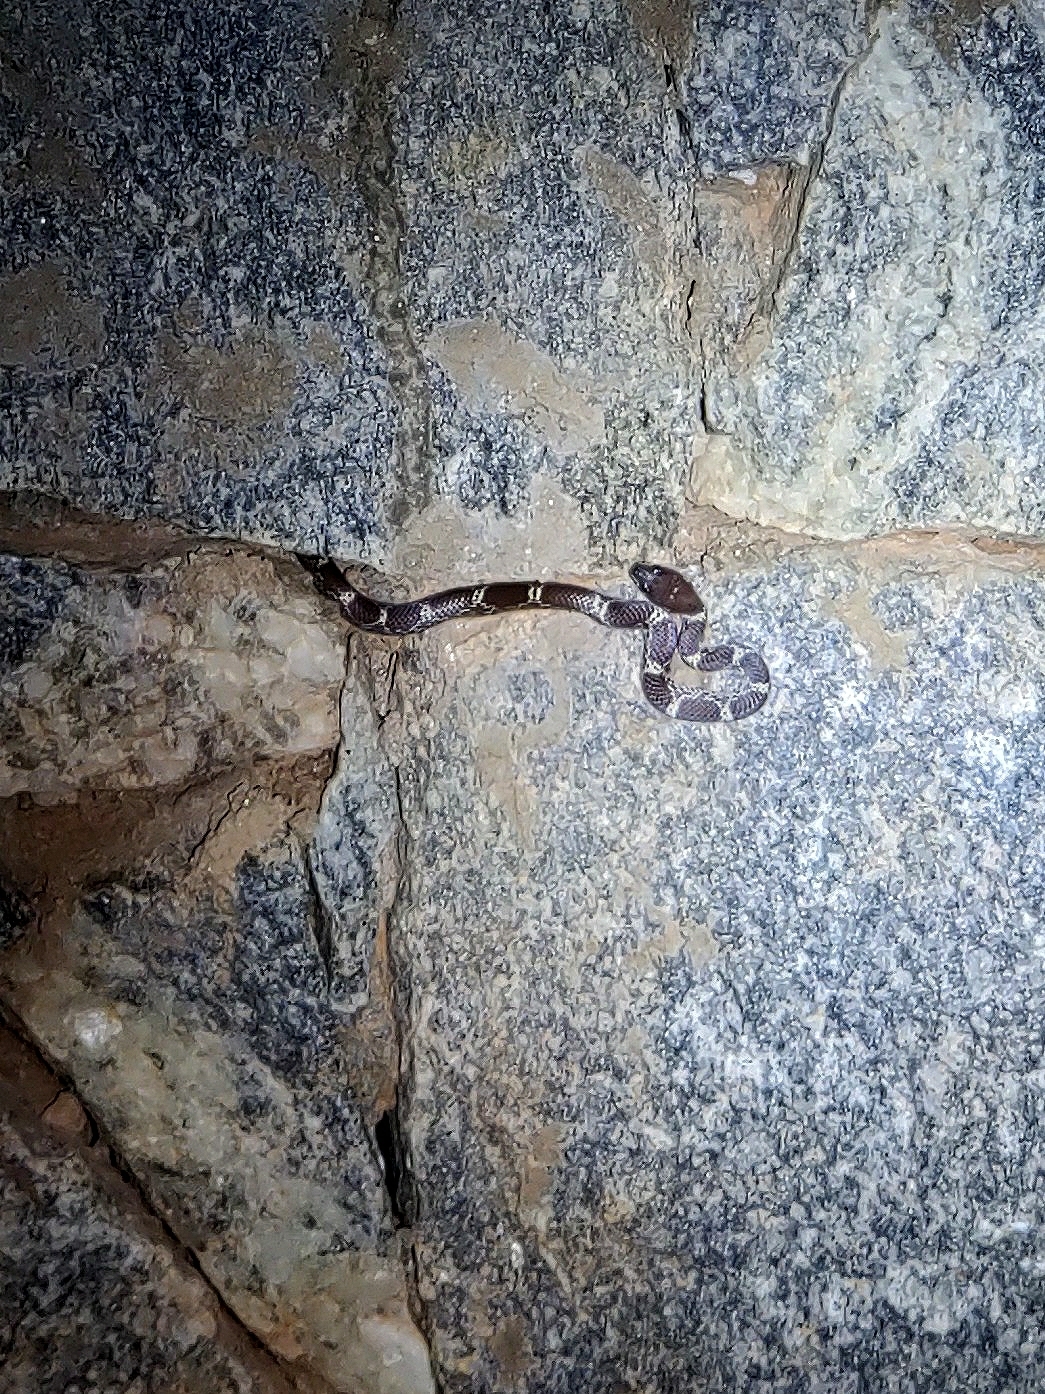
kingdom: Animalia
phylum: Chordata
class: Squamata
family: Colubridae
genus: Lycodon
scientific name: Lycodon fasciolatus
